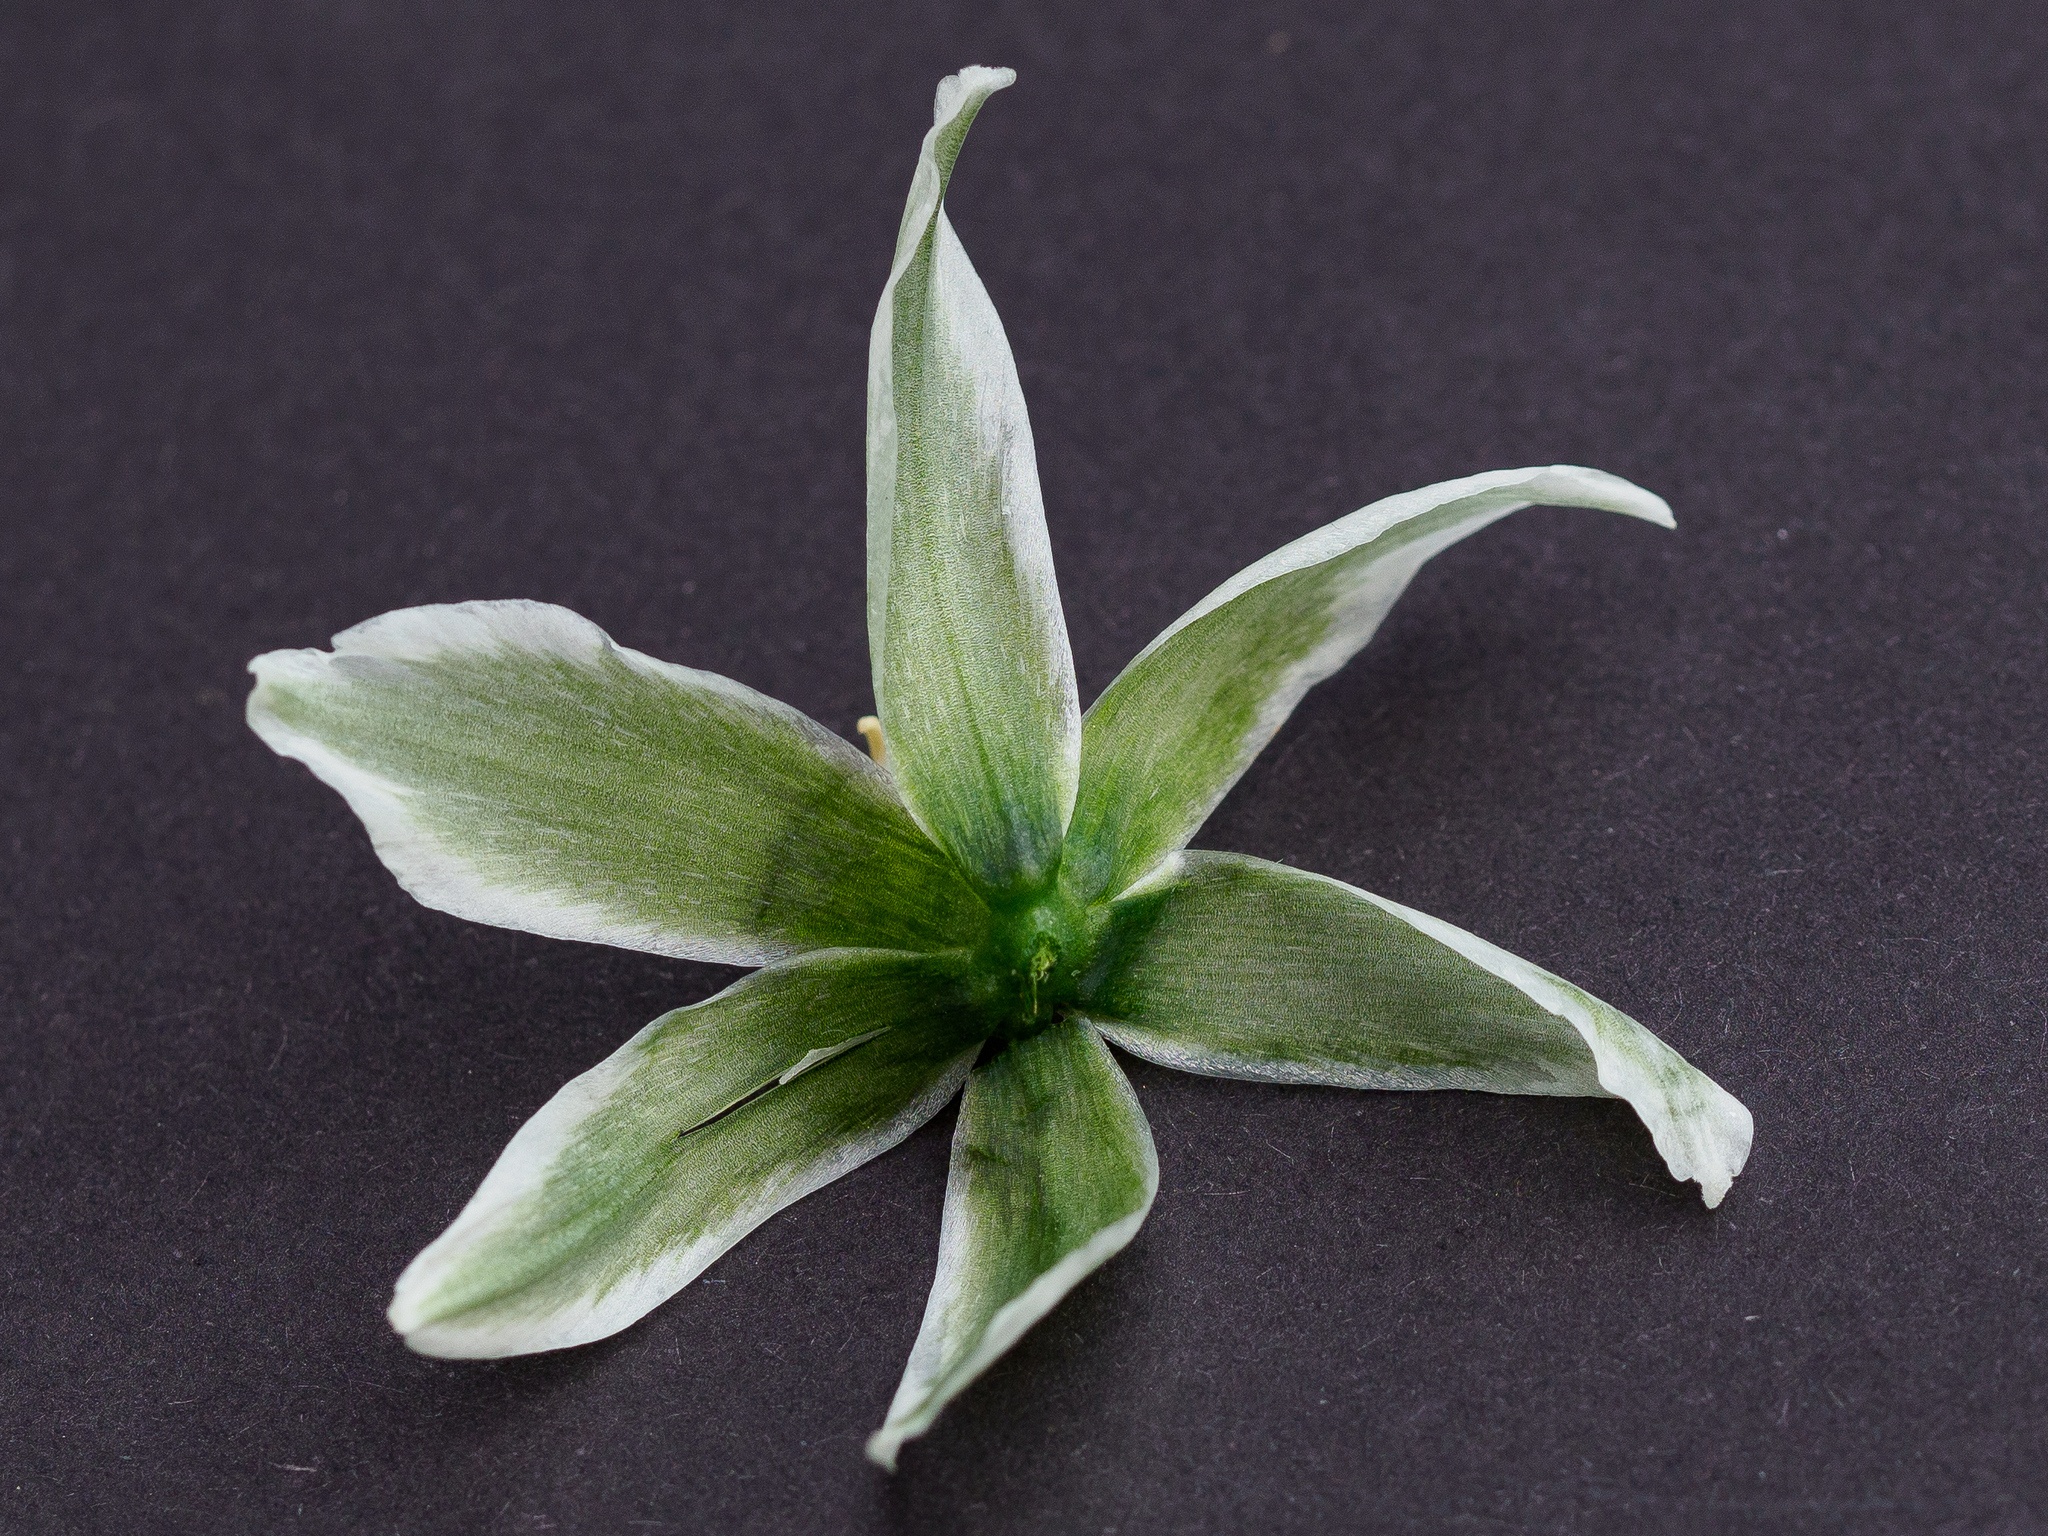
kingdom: Plantae
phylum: Tracheophyta
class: Liliopsida
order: Asparagales
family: Asparagaceae
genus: Ornithogalum
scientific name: Ornithogalum boucheanum
